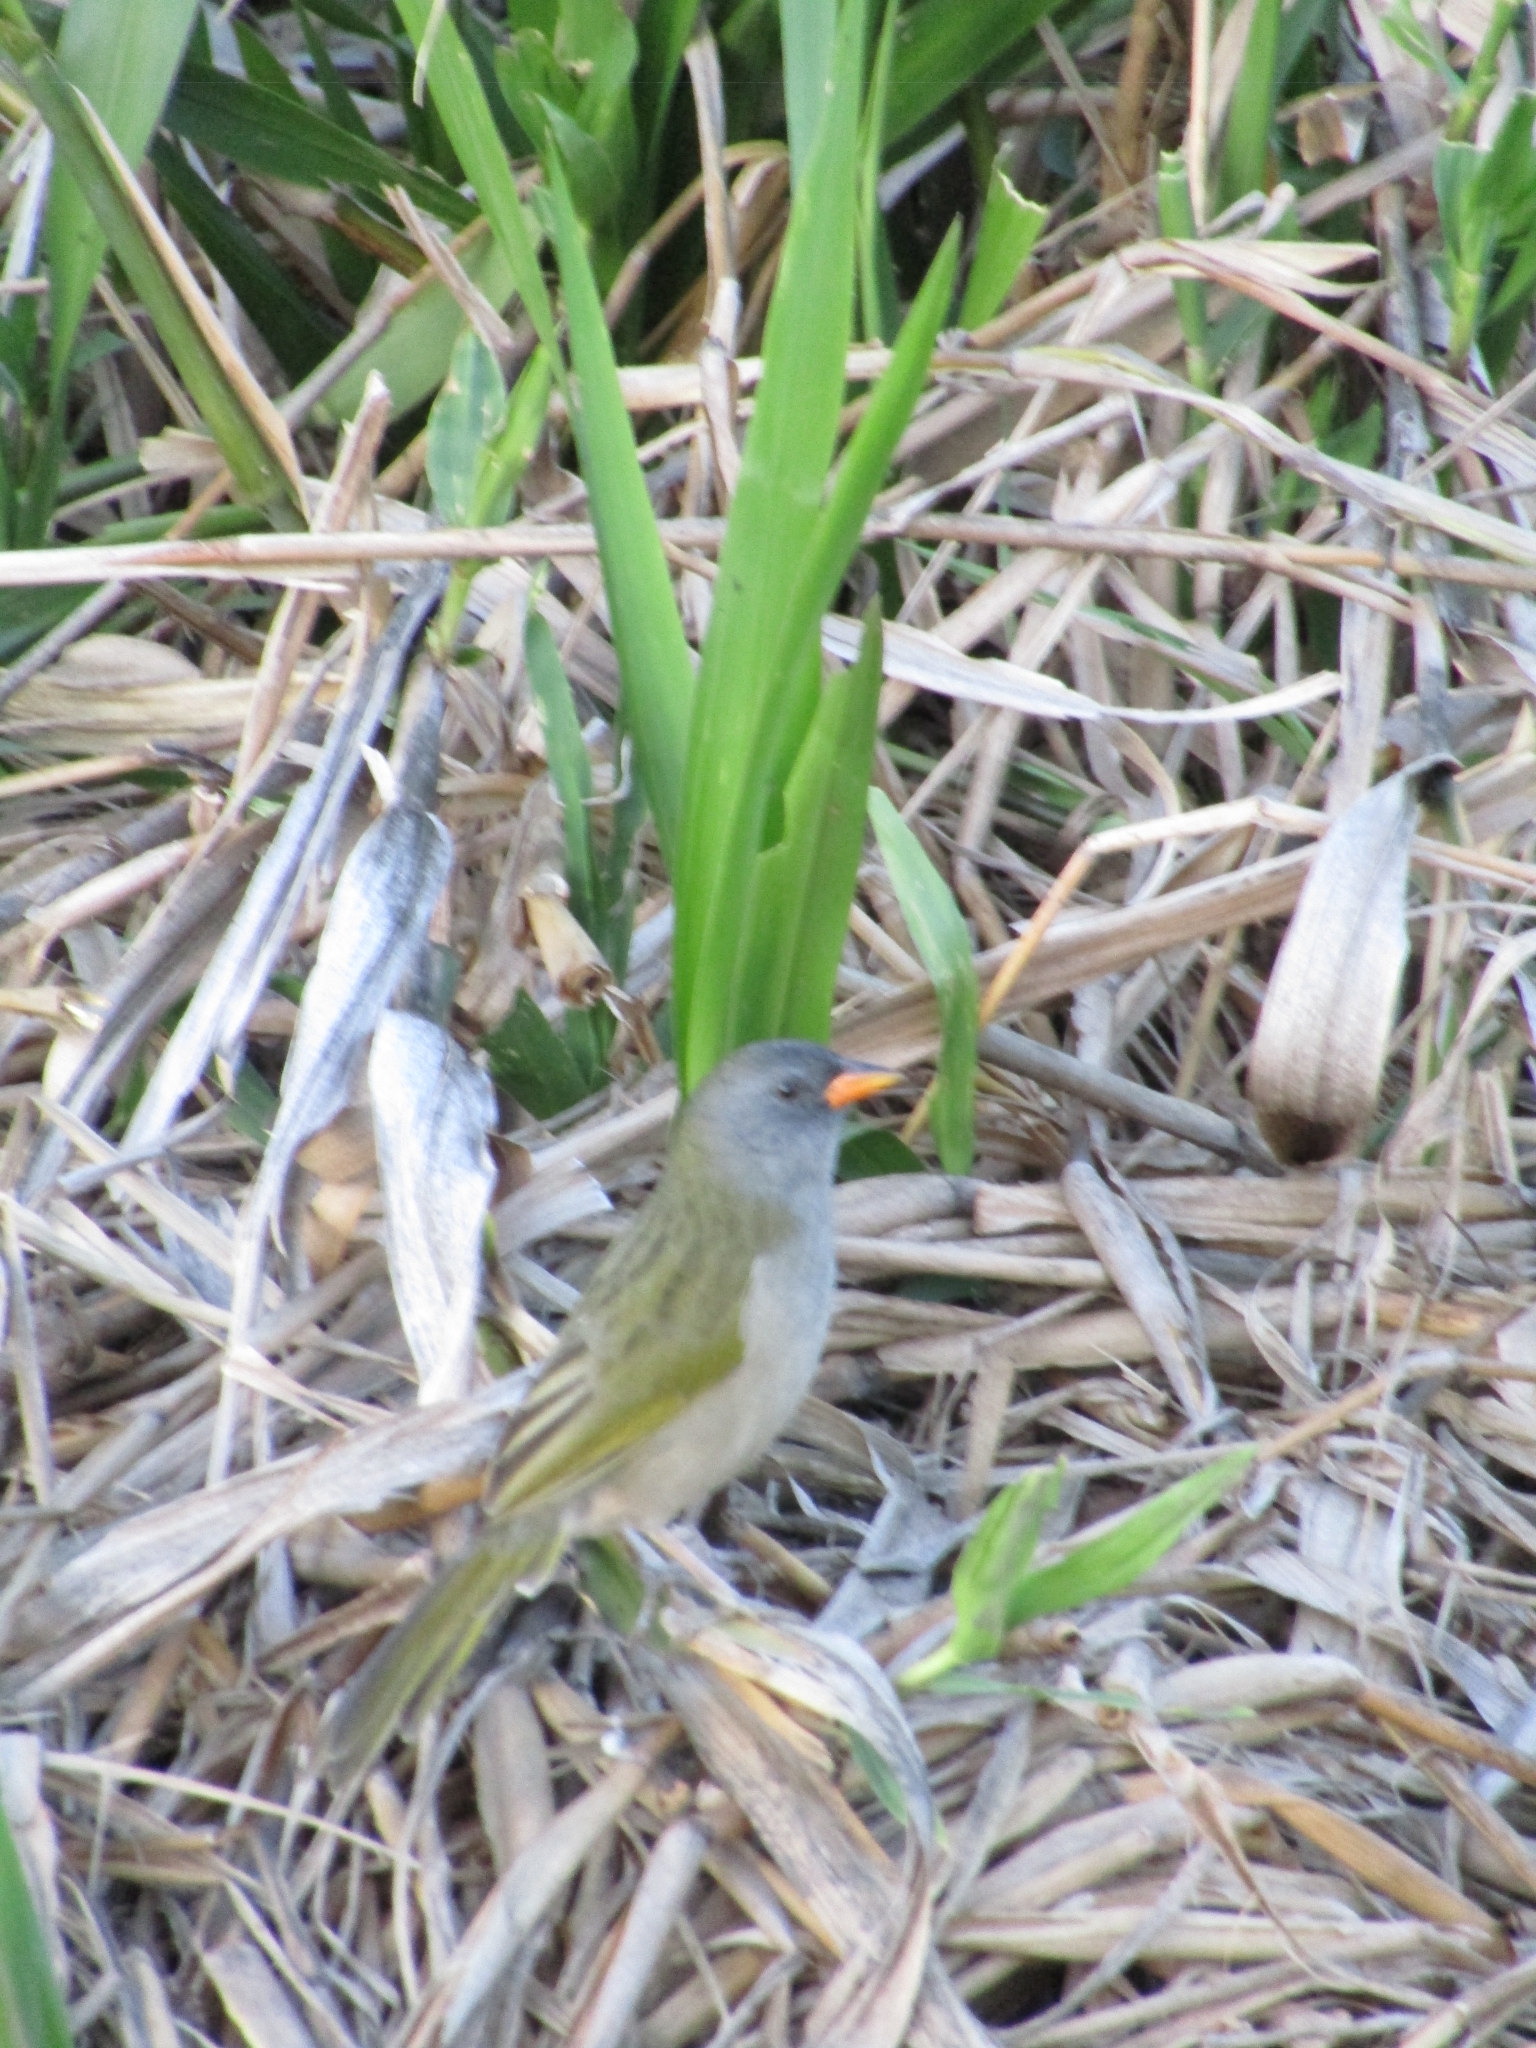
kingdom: Animalia
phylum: Chordata
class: Aves
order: Passeriformes
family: Thraupidae
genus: Embernagra
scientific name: Embernagra platensis
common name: Pampa finch
